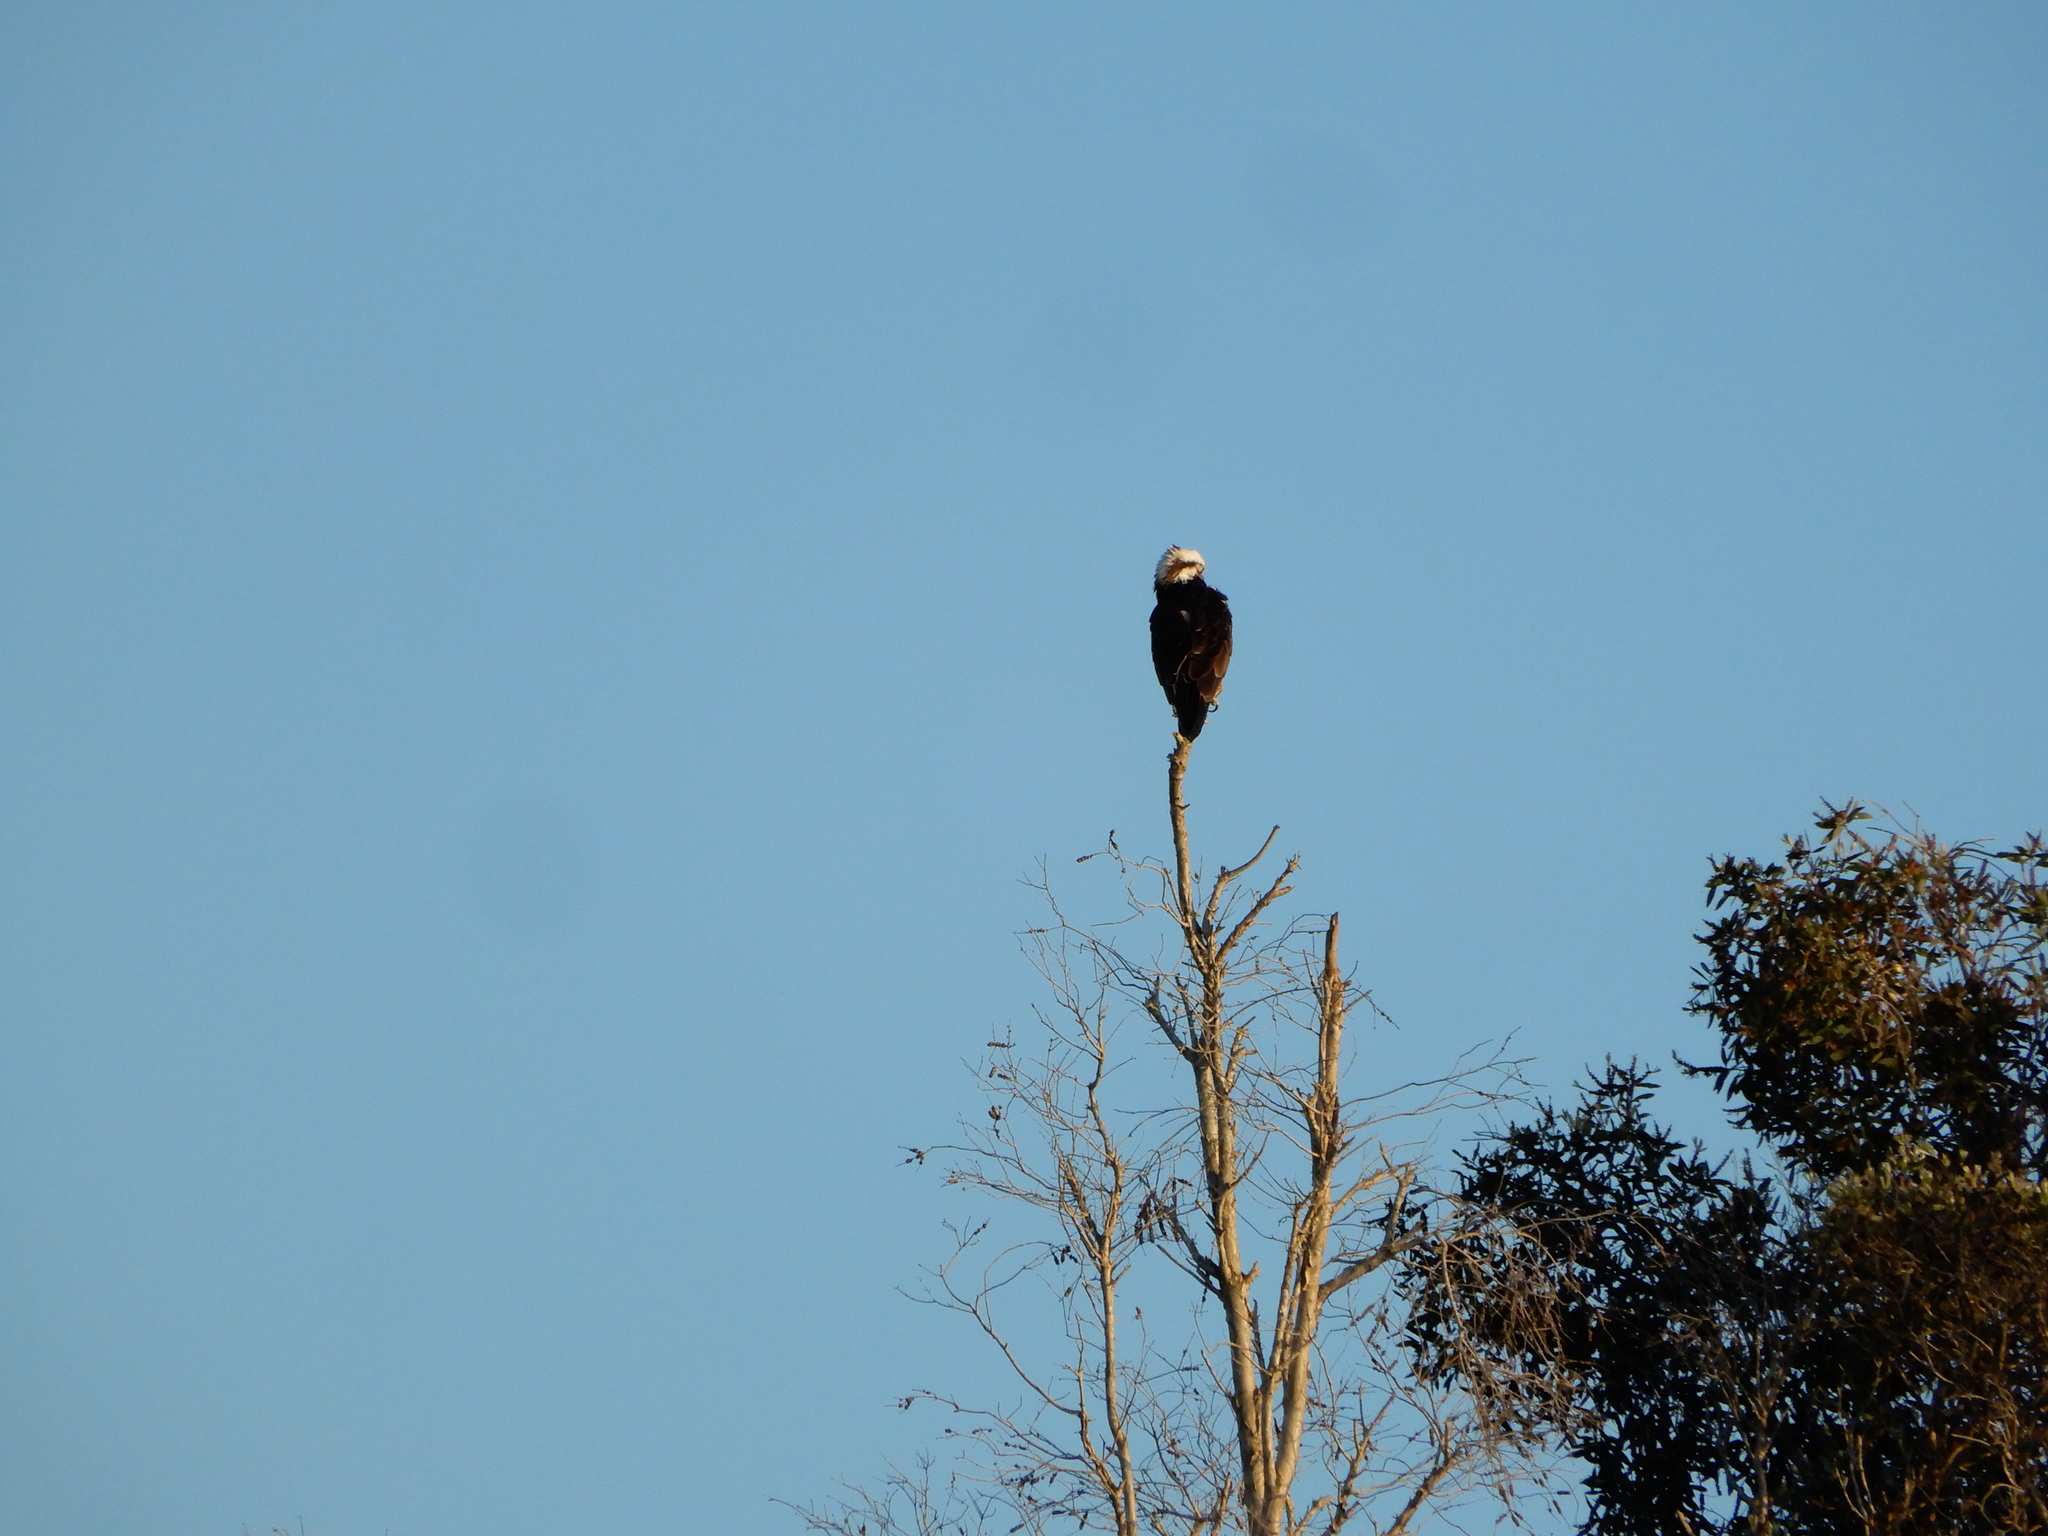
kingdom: Animalia
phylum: Chordata
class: Aves
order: Accipitriformes
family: Pandionidae
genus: Pandion
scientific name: Pandion haliaetus
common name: Osprey
